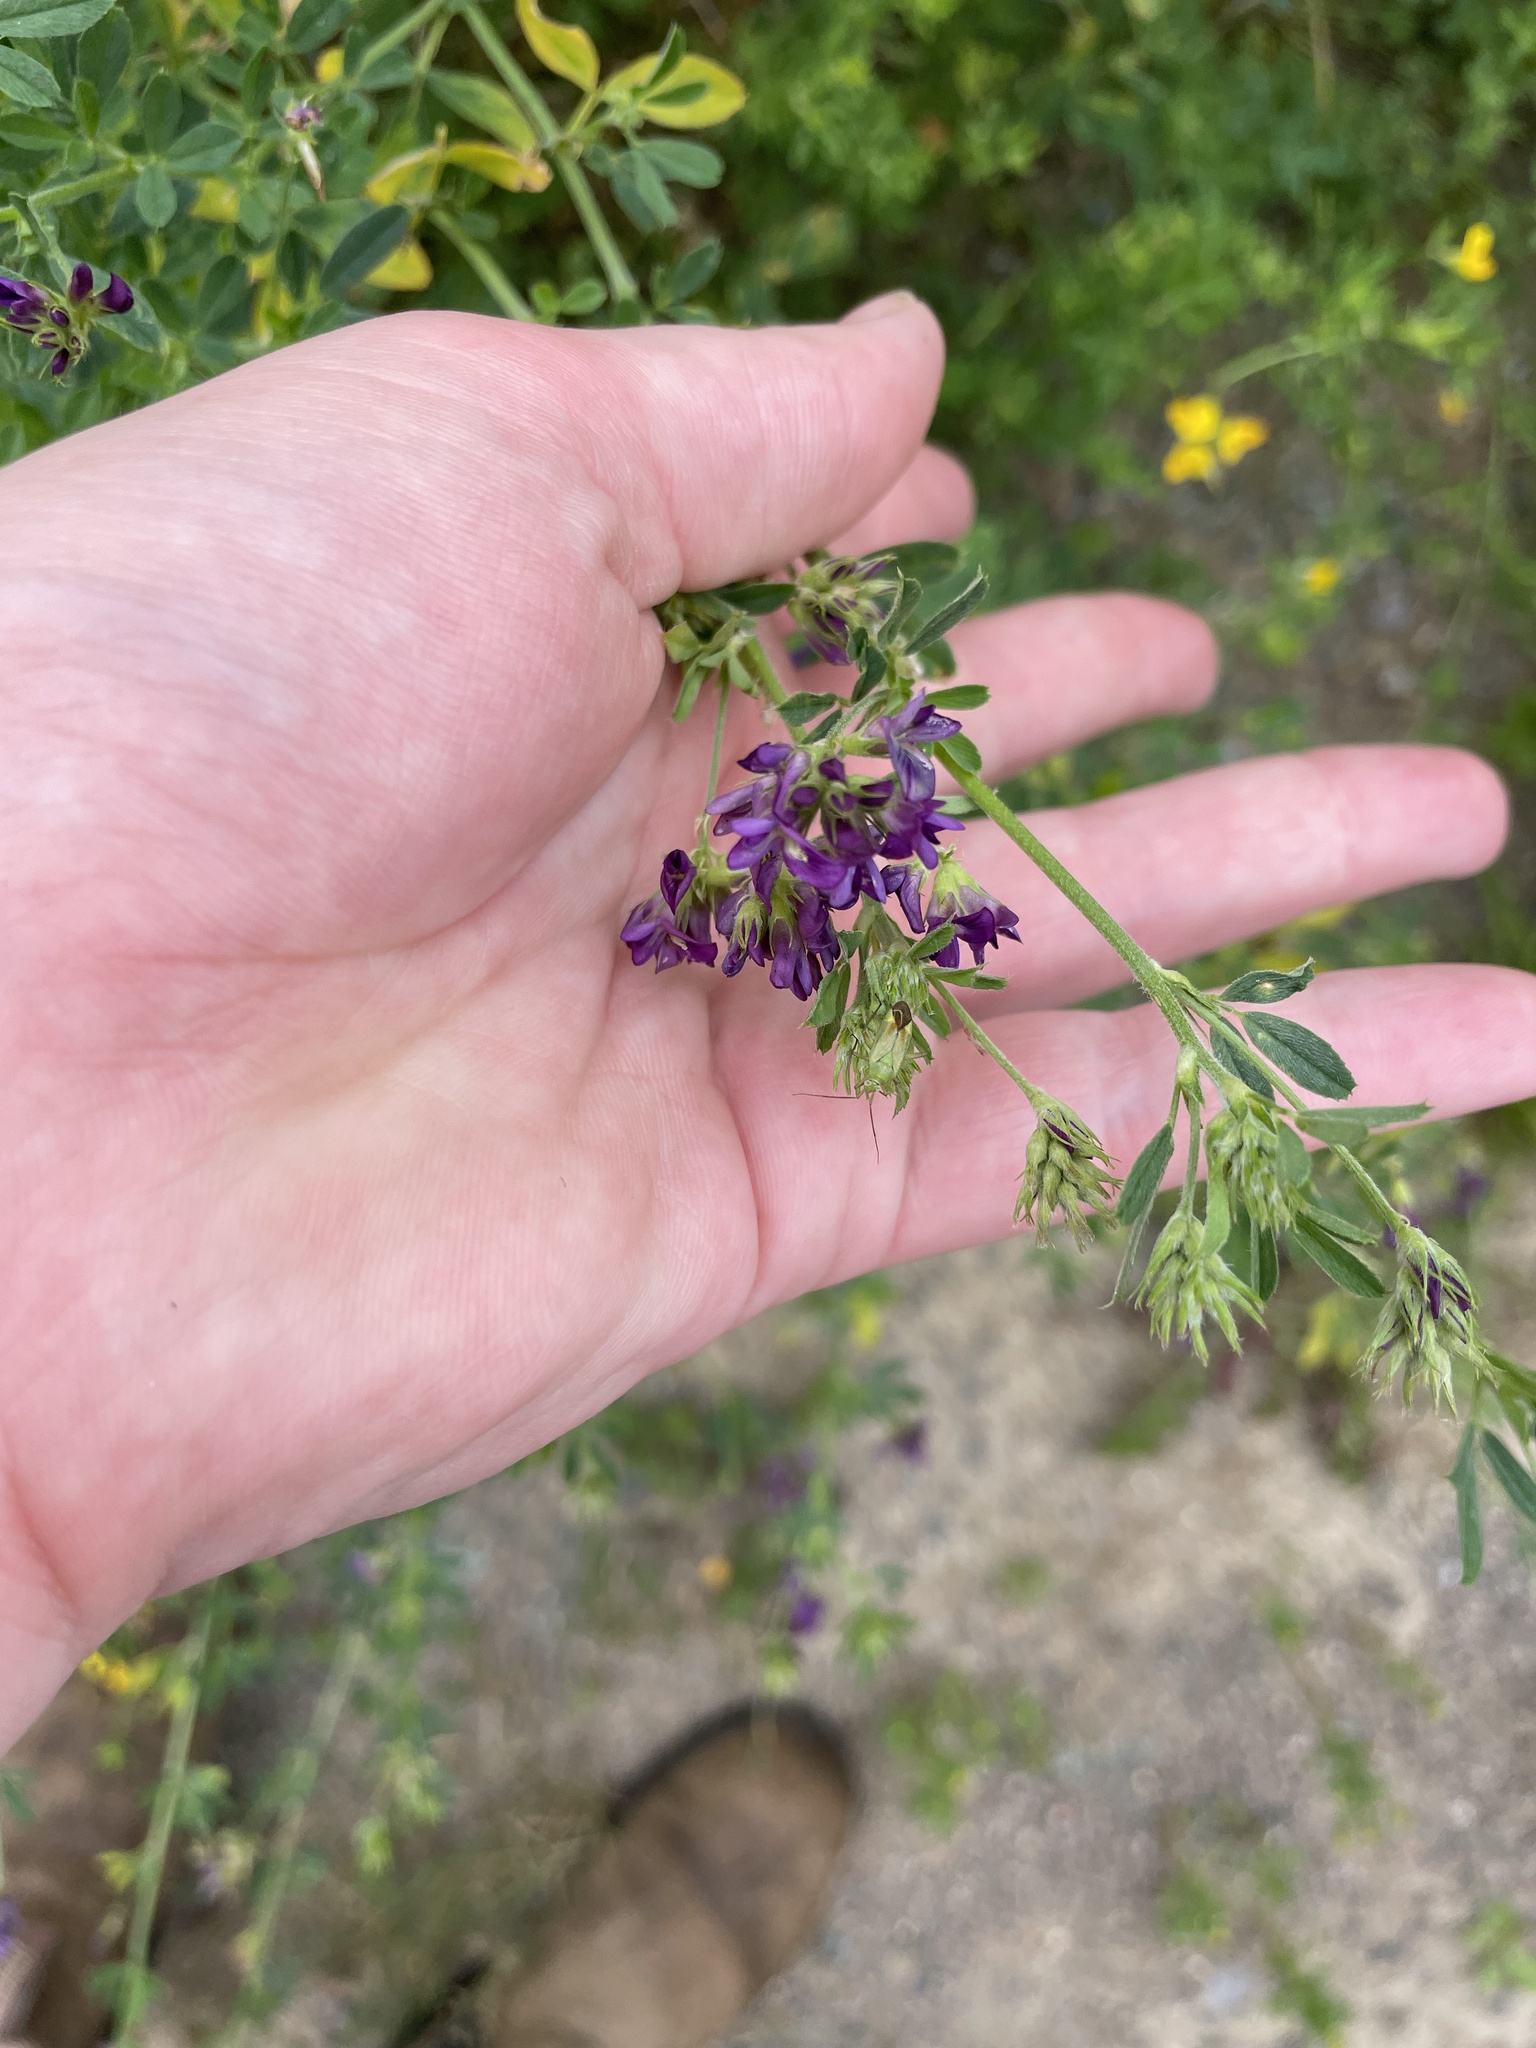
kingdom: Plantae
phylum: Tracheophyta
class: Magnoliopsida
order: Fabales
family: Fabaceae
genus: Medicago
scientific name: Medicago sativa
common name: Alfalfa
